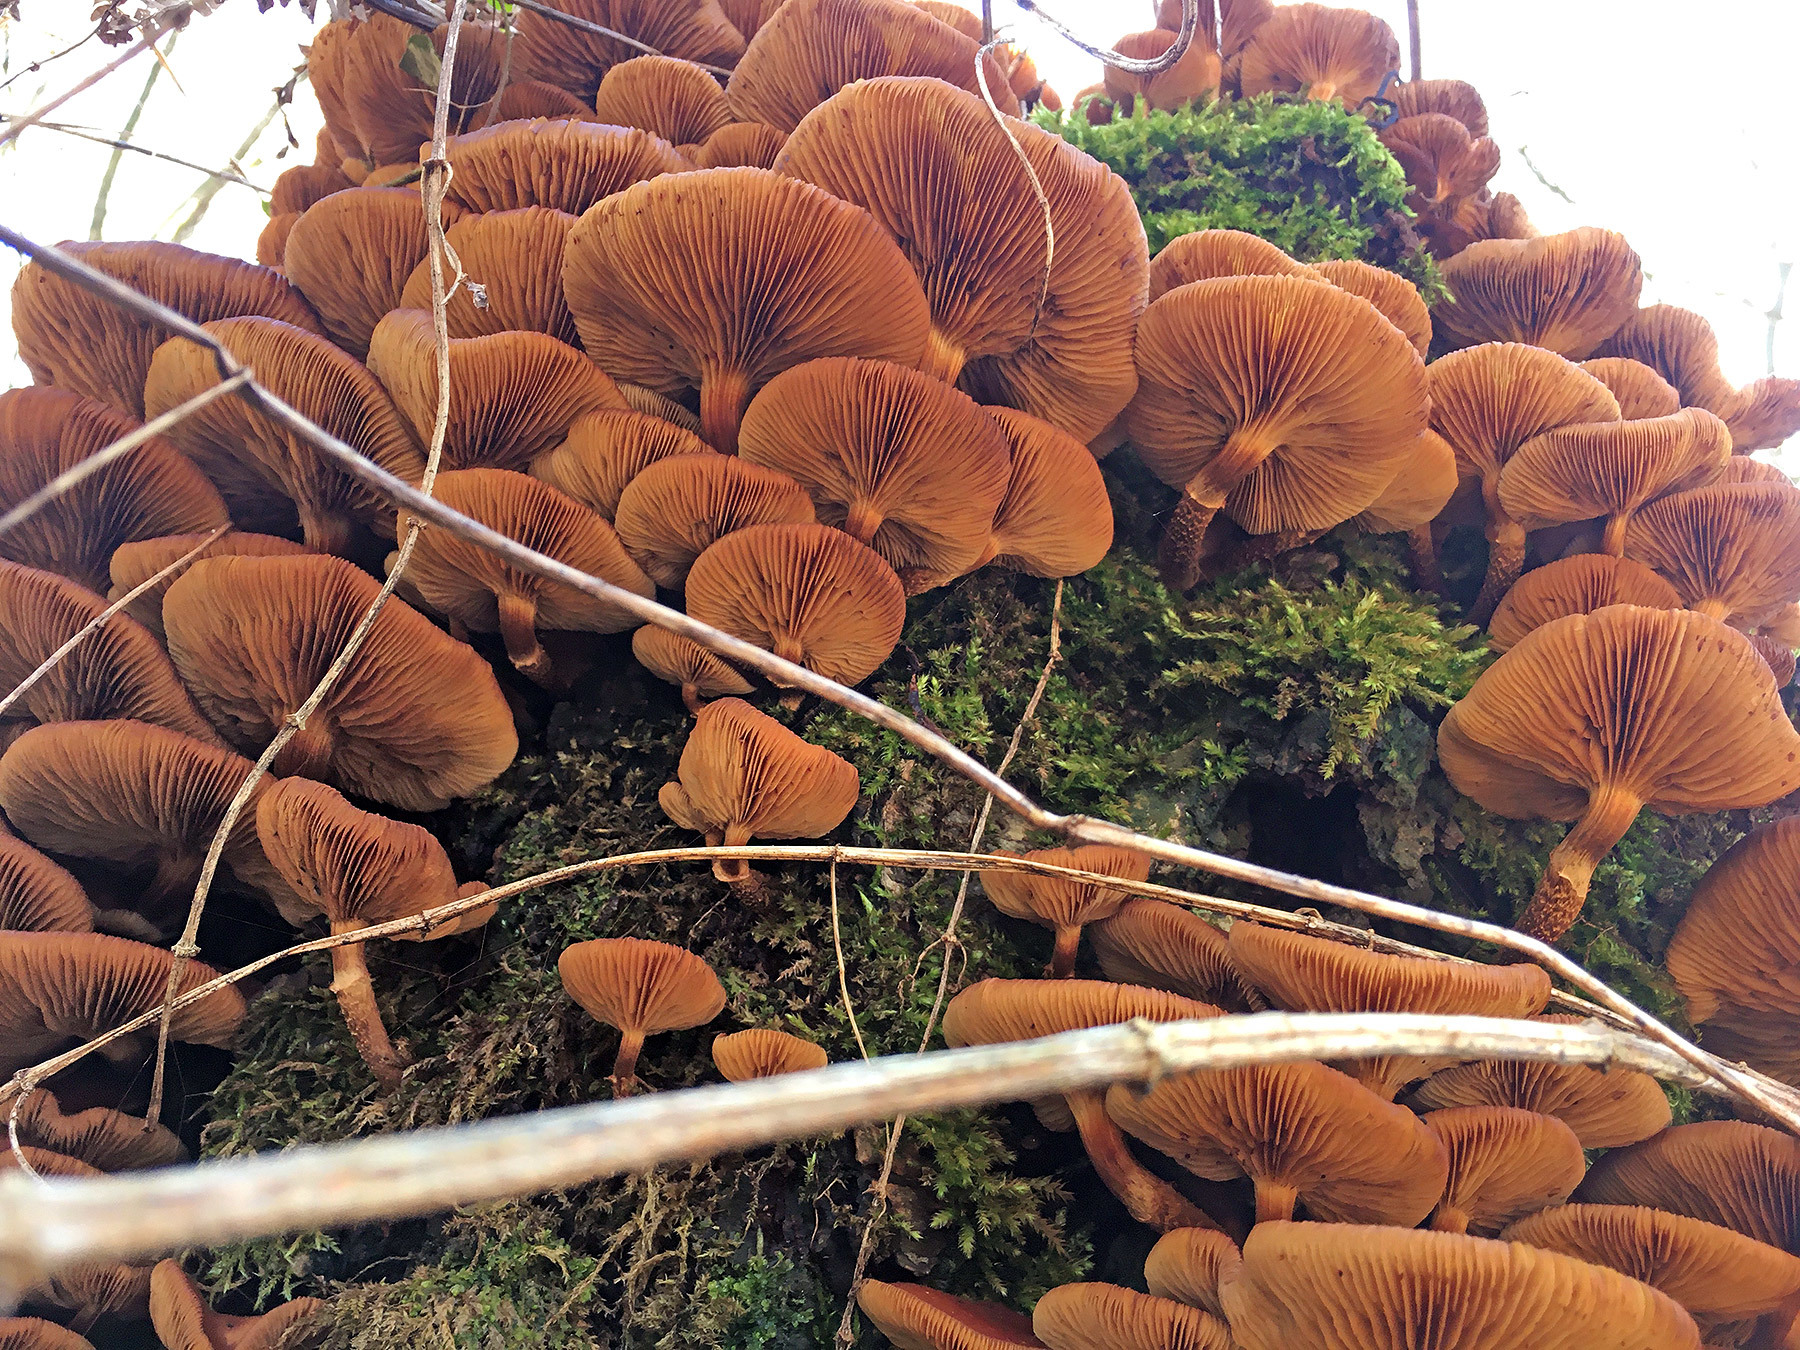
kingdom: Fungi
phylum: Basidiomycota
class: Agaricomycetes
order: Agaricales
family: Strophariaceae
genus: Kuehneromyces
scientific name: Kuehneromyces mutabilis
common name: Sheathed woodtuft
